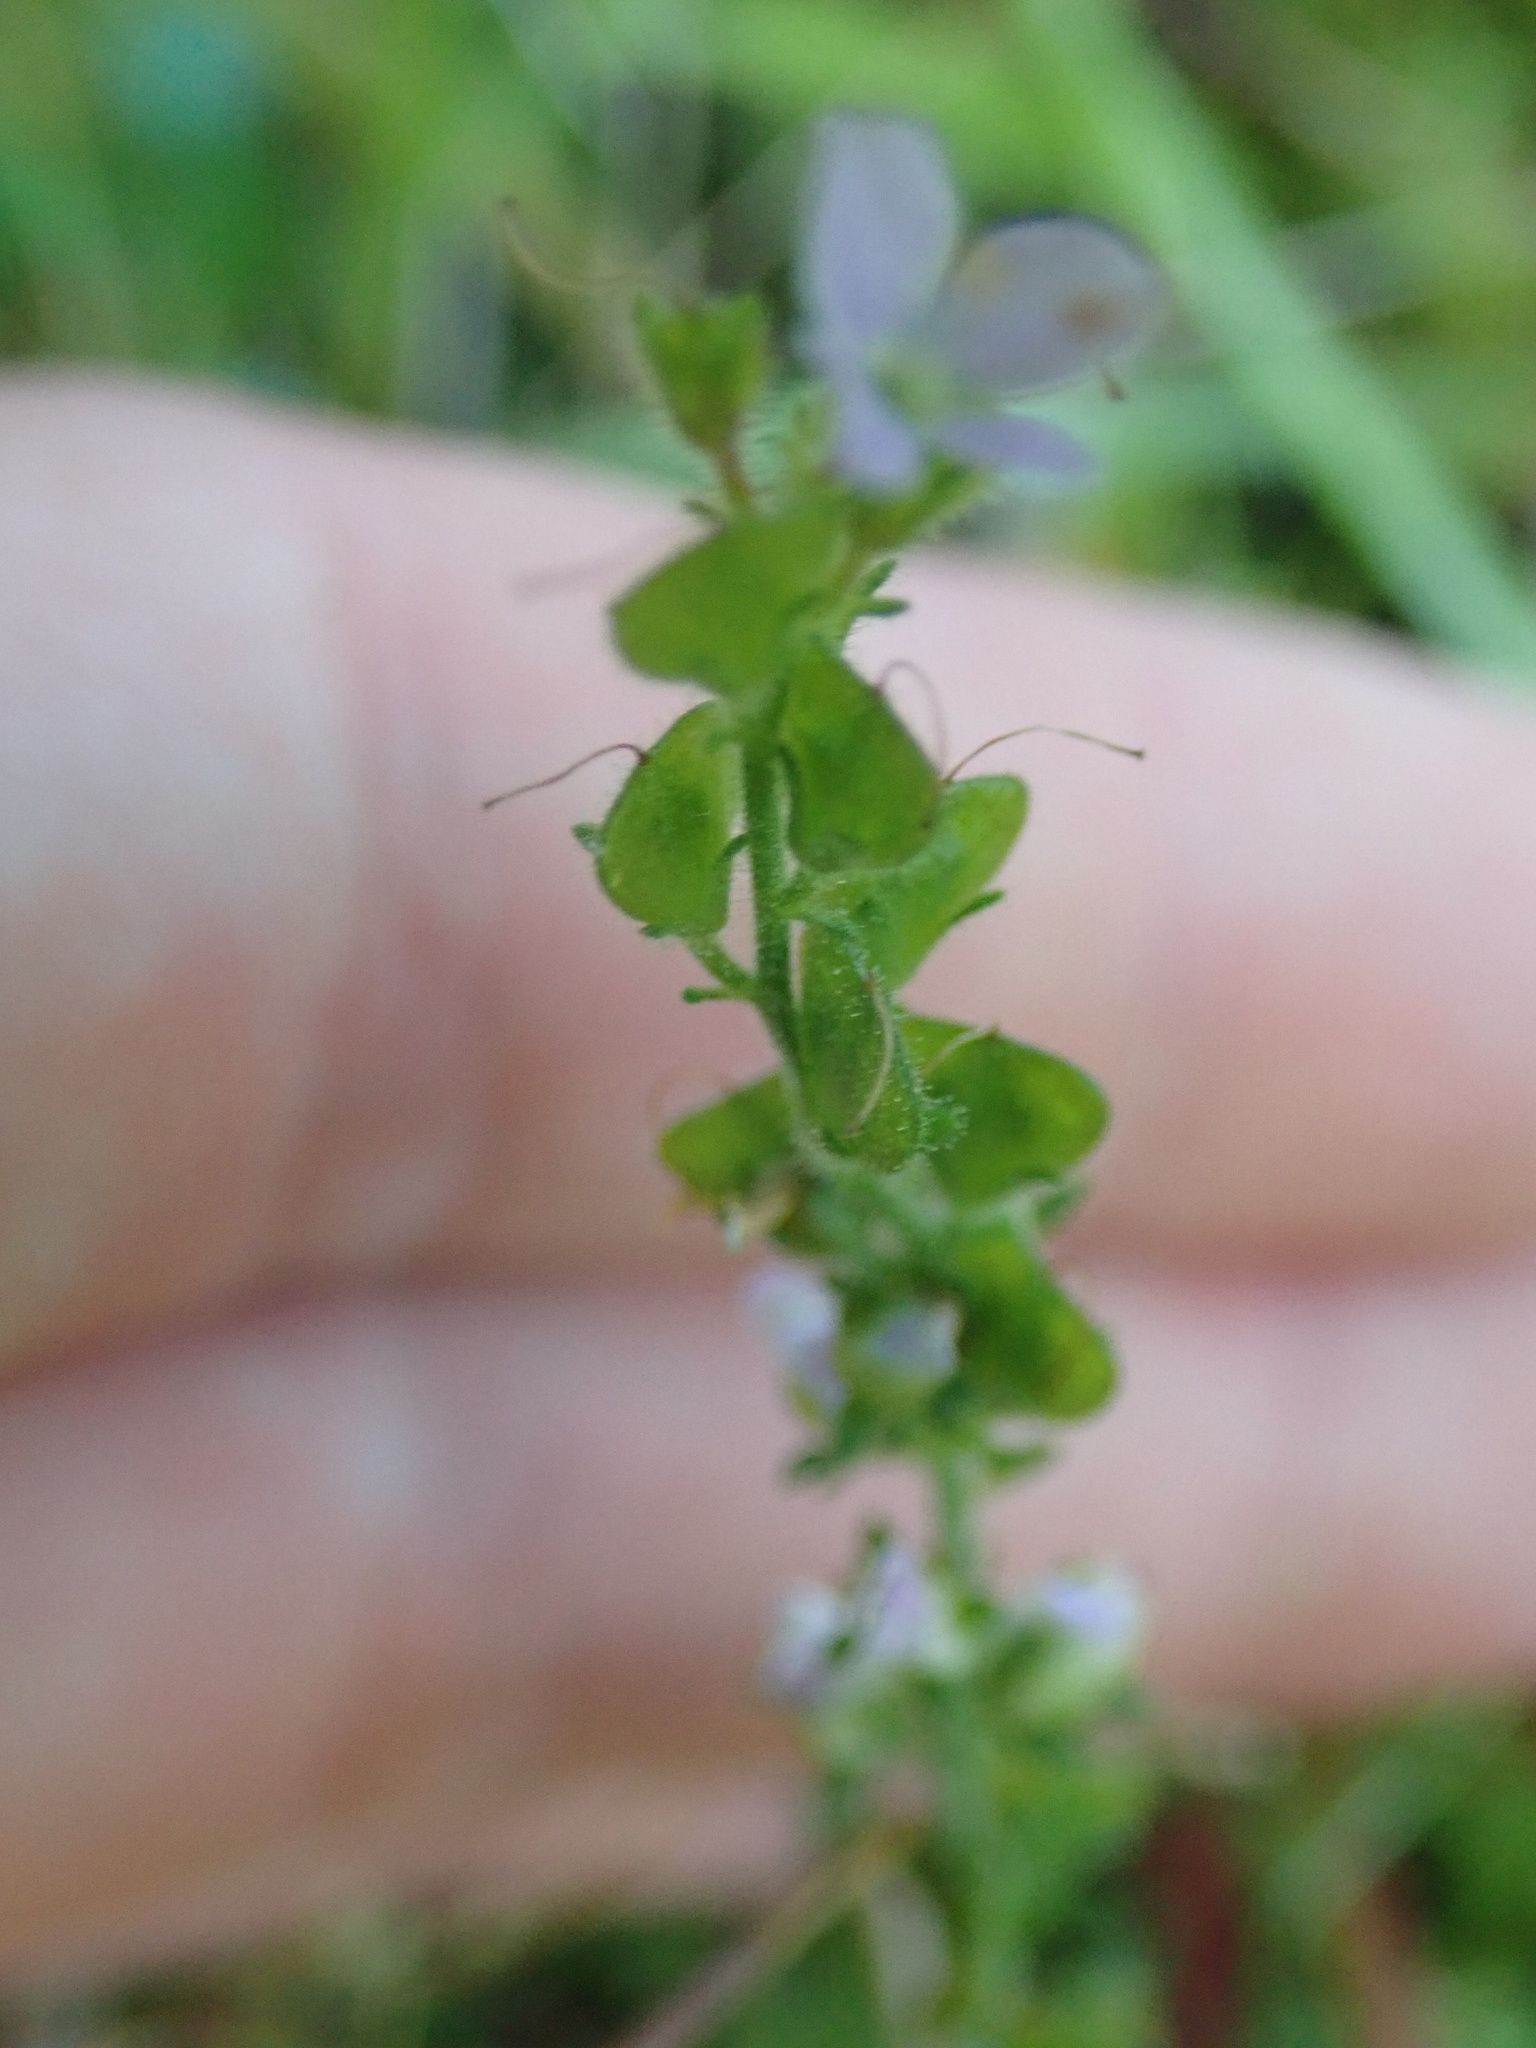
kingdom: Plantae
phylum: Tracheophyta
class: Magnoliopsida
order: Lamiales
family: Plantaginaceae
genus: Veronica
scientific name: Veronica officinalis
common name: Common speedwell
